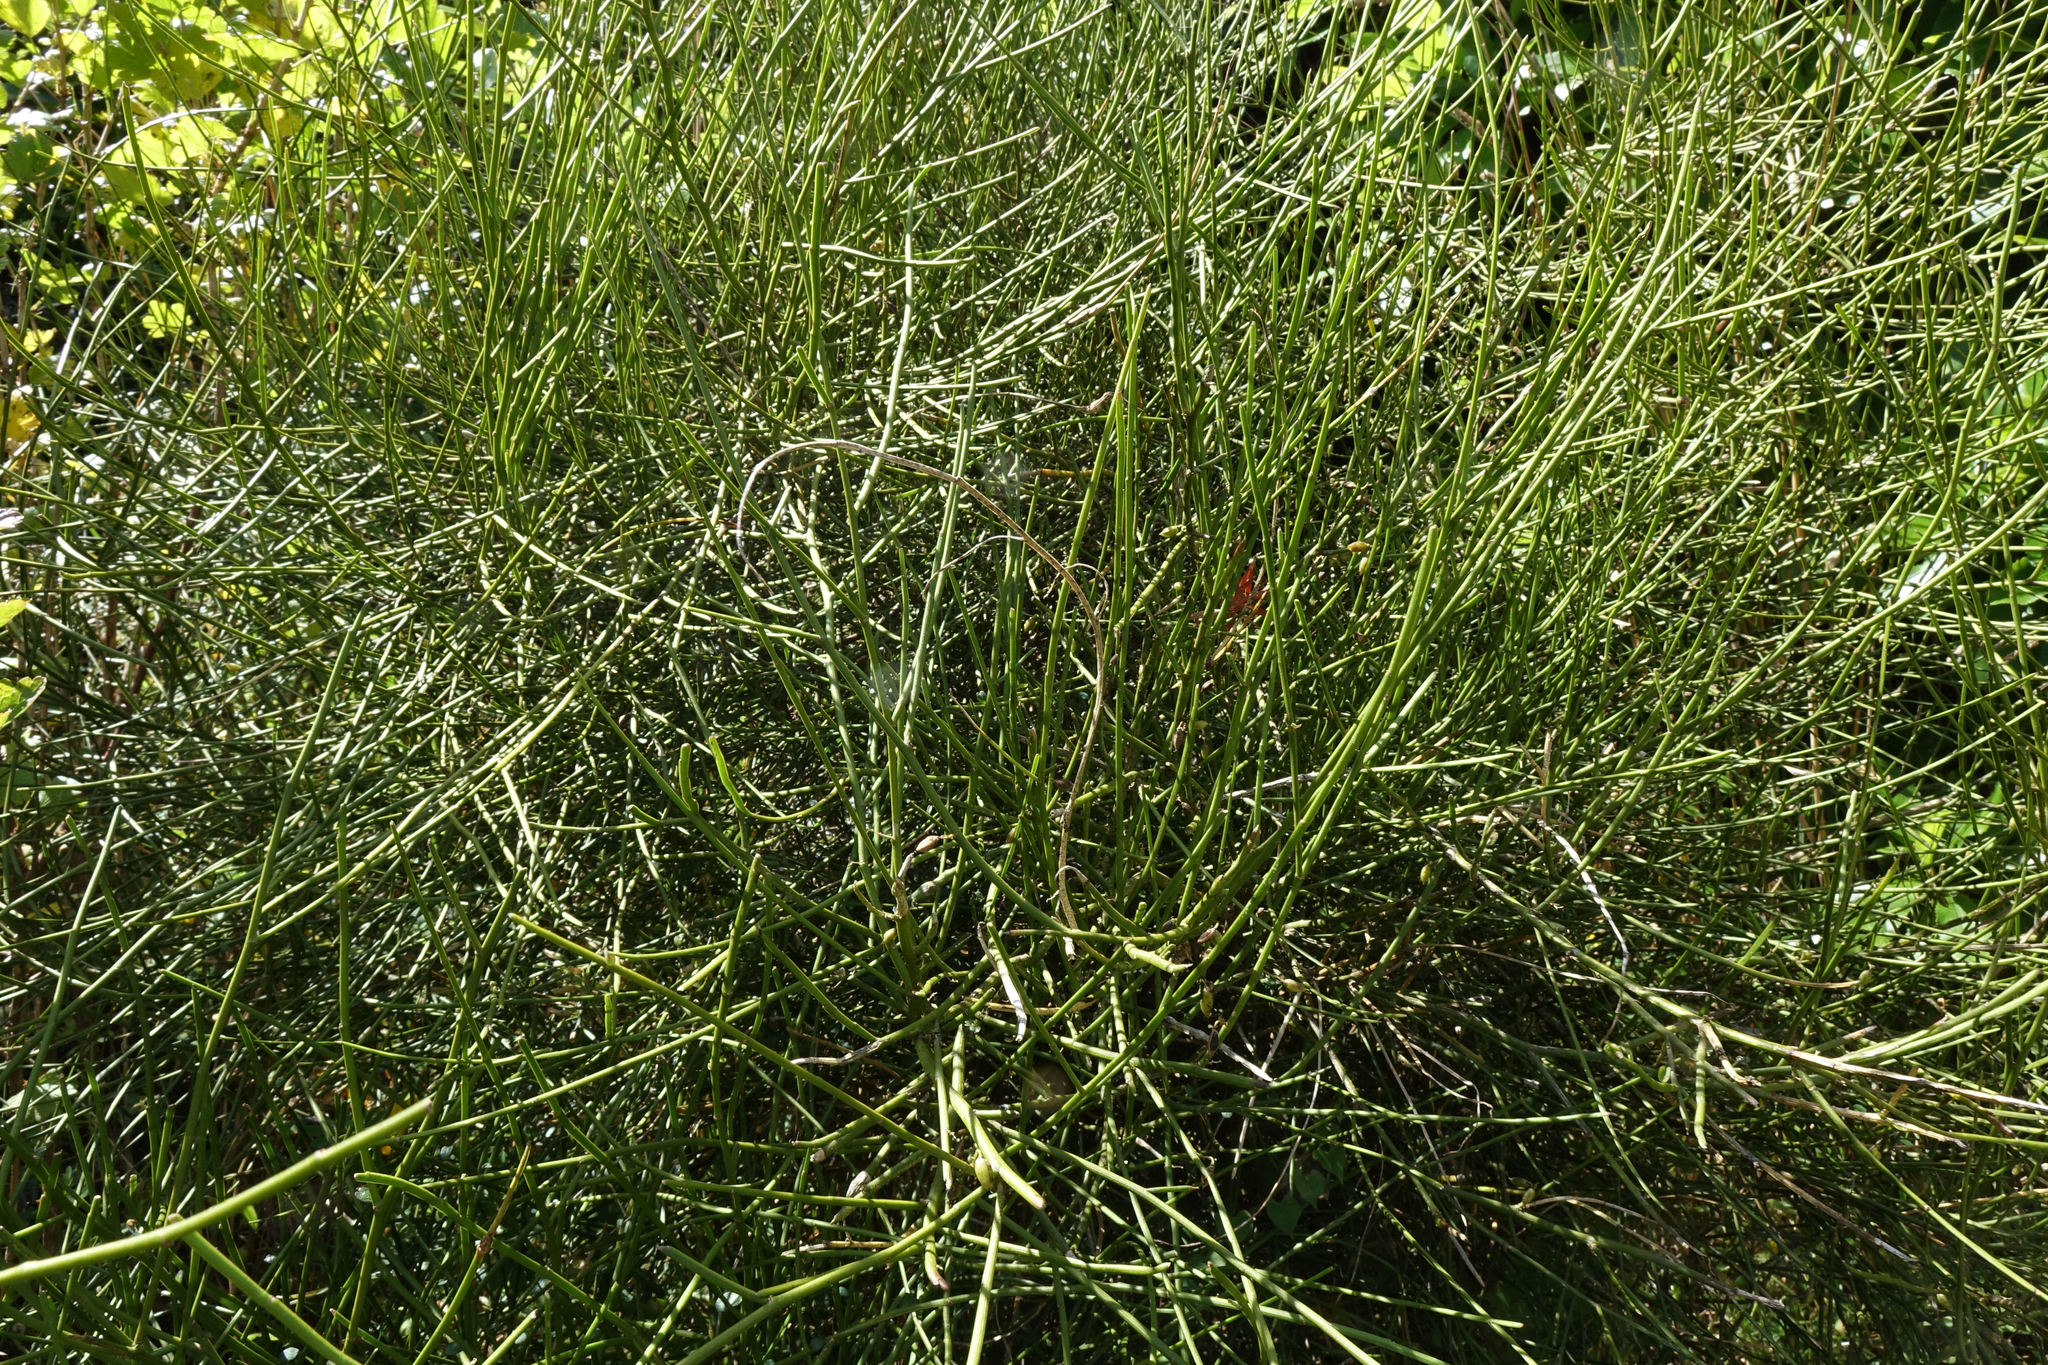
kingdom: Plantae
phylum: Tracheophyta
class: Magnoliopsida
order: Fabales
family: Fabaceae
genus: Carmichaelia
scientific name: Carmichaelia petriei
